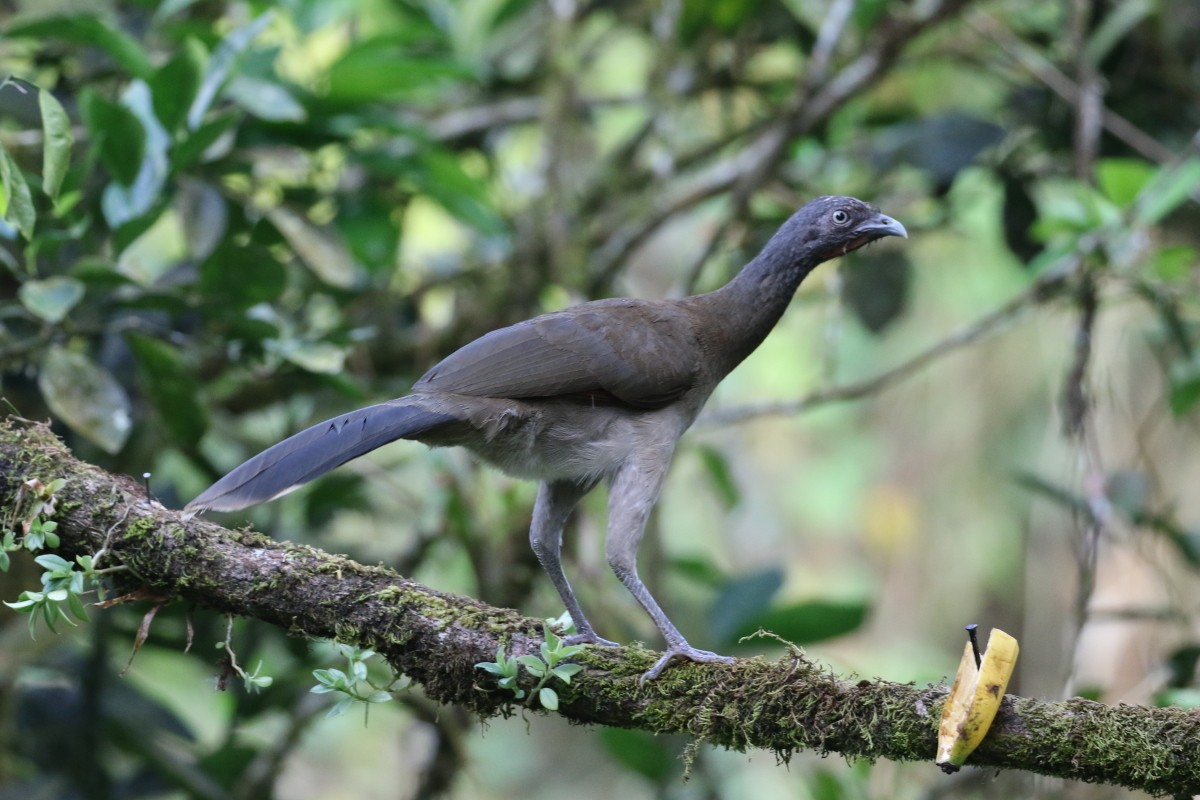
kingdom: Animalia
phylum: Chordata
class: Aves
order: Galliformes
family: Cracidae
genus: Ortalis
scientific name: Ortalis cinereiceps
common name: Grey-headed chachalaca
